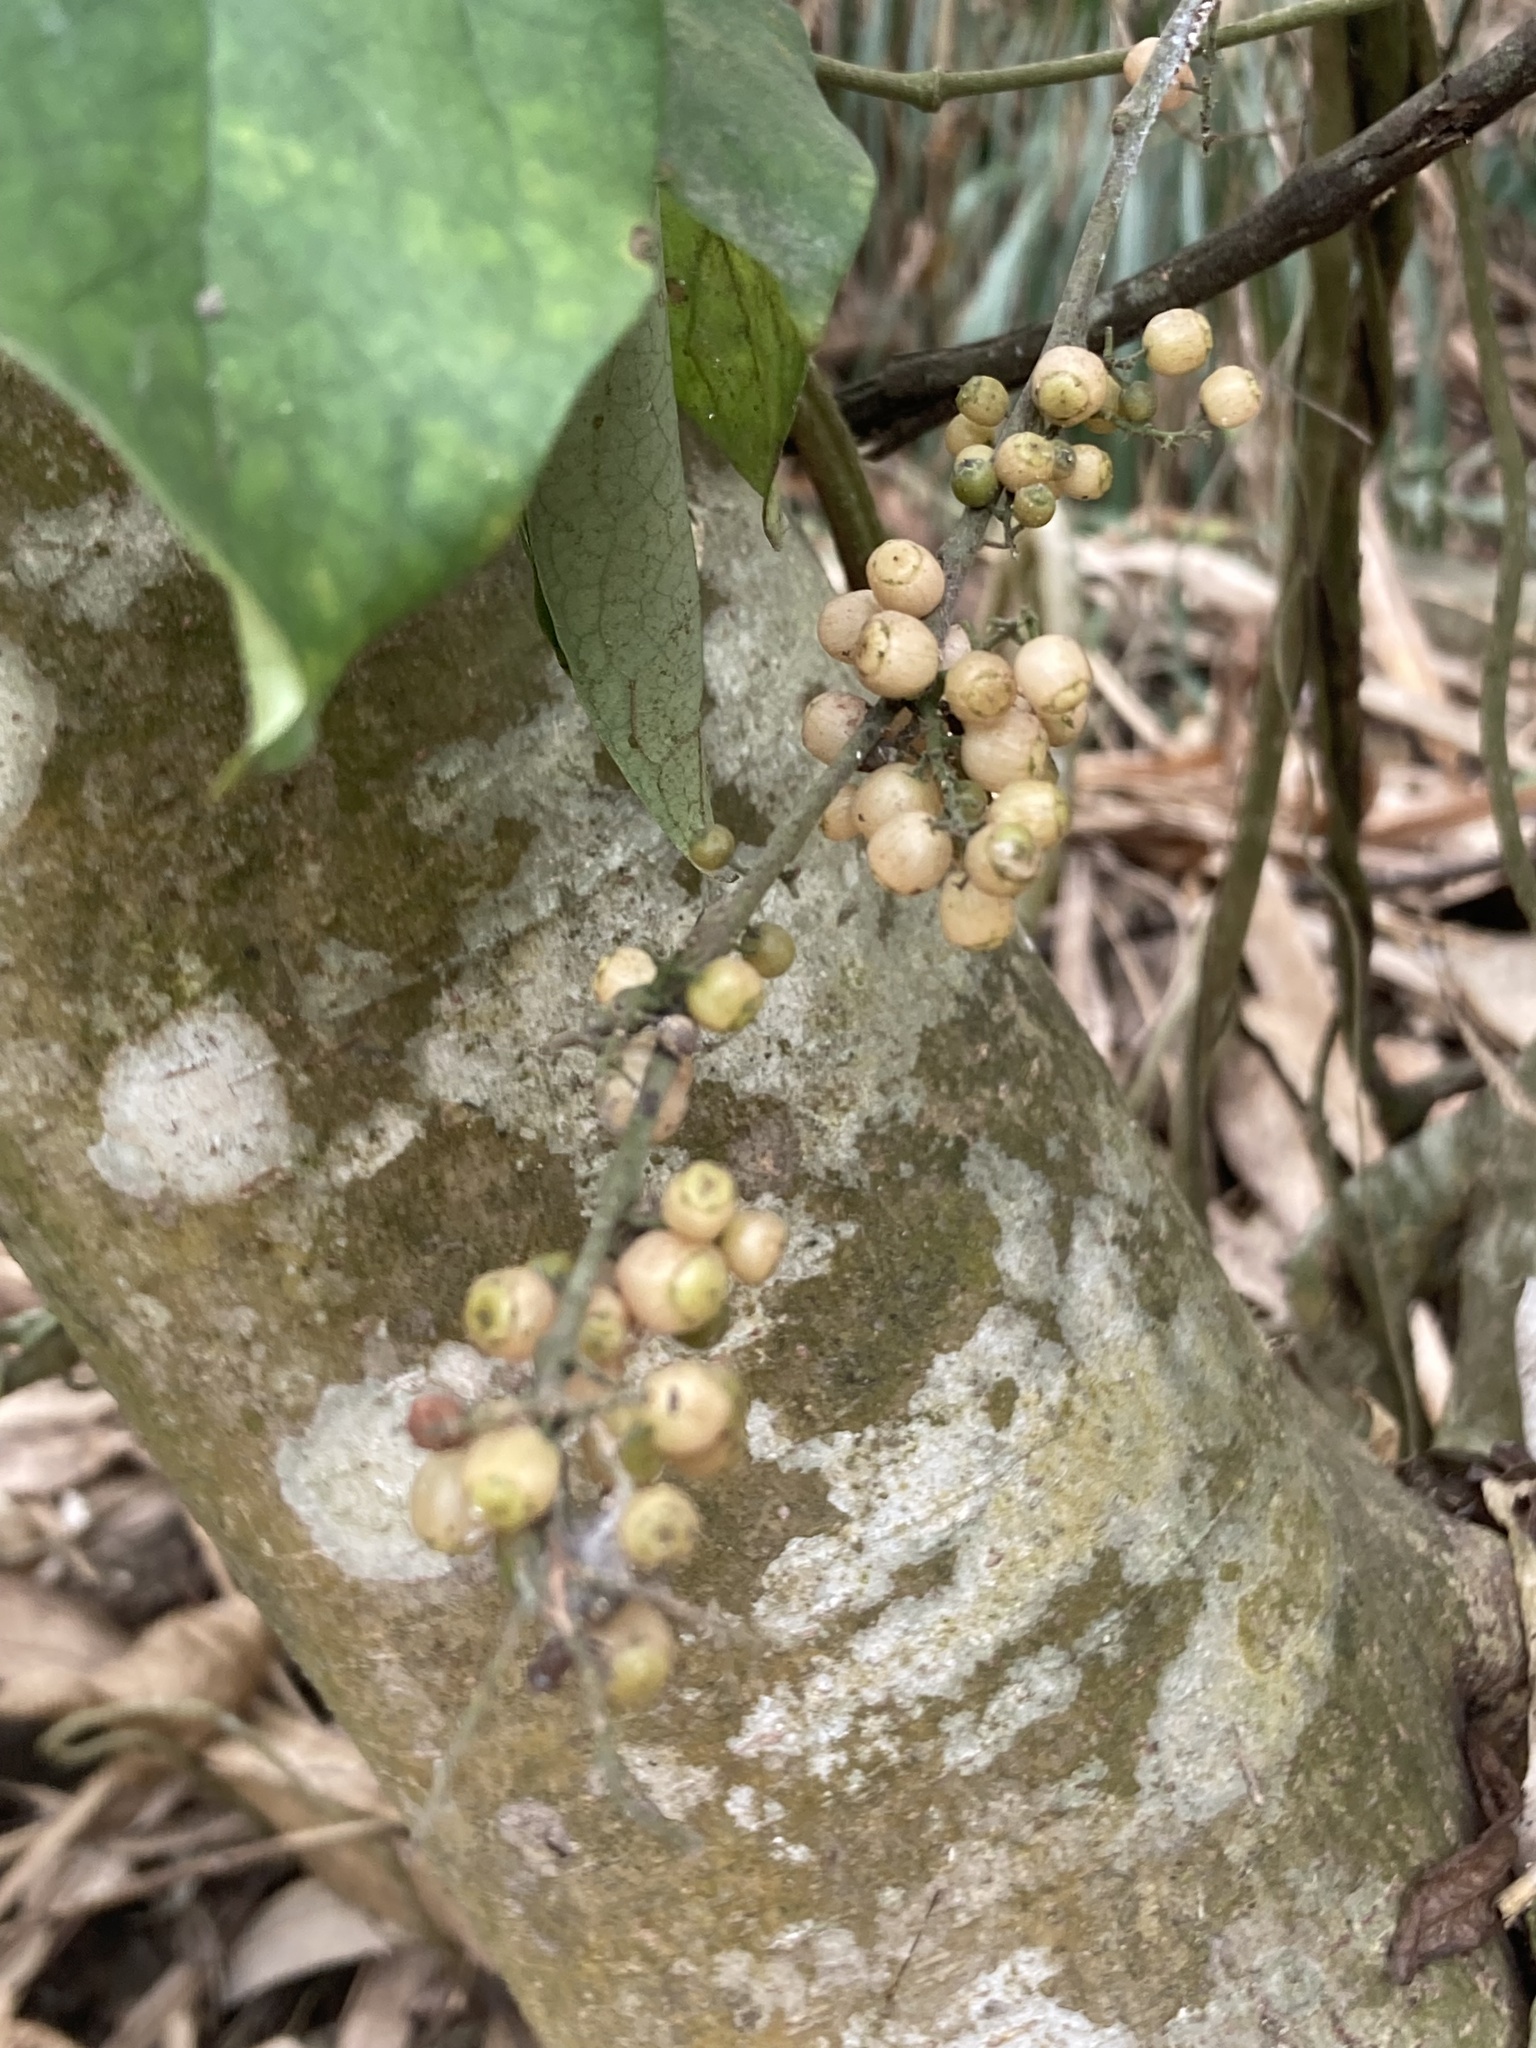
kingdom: Plantae
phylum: Tracheophyta
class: Magnoliopsida
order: Ericales
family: Primulaceae
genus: Maesa
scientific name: Maesa perlaria
